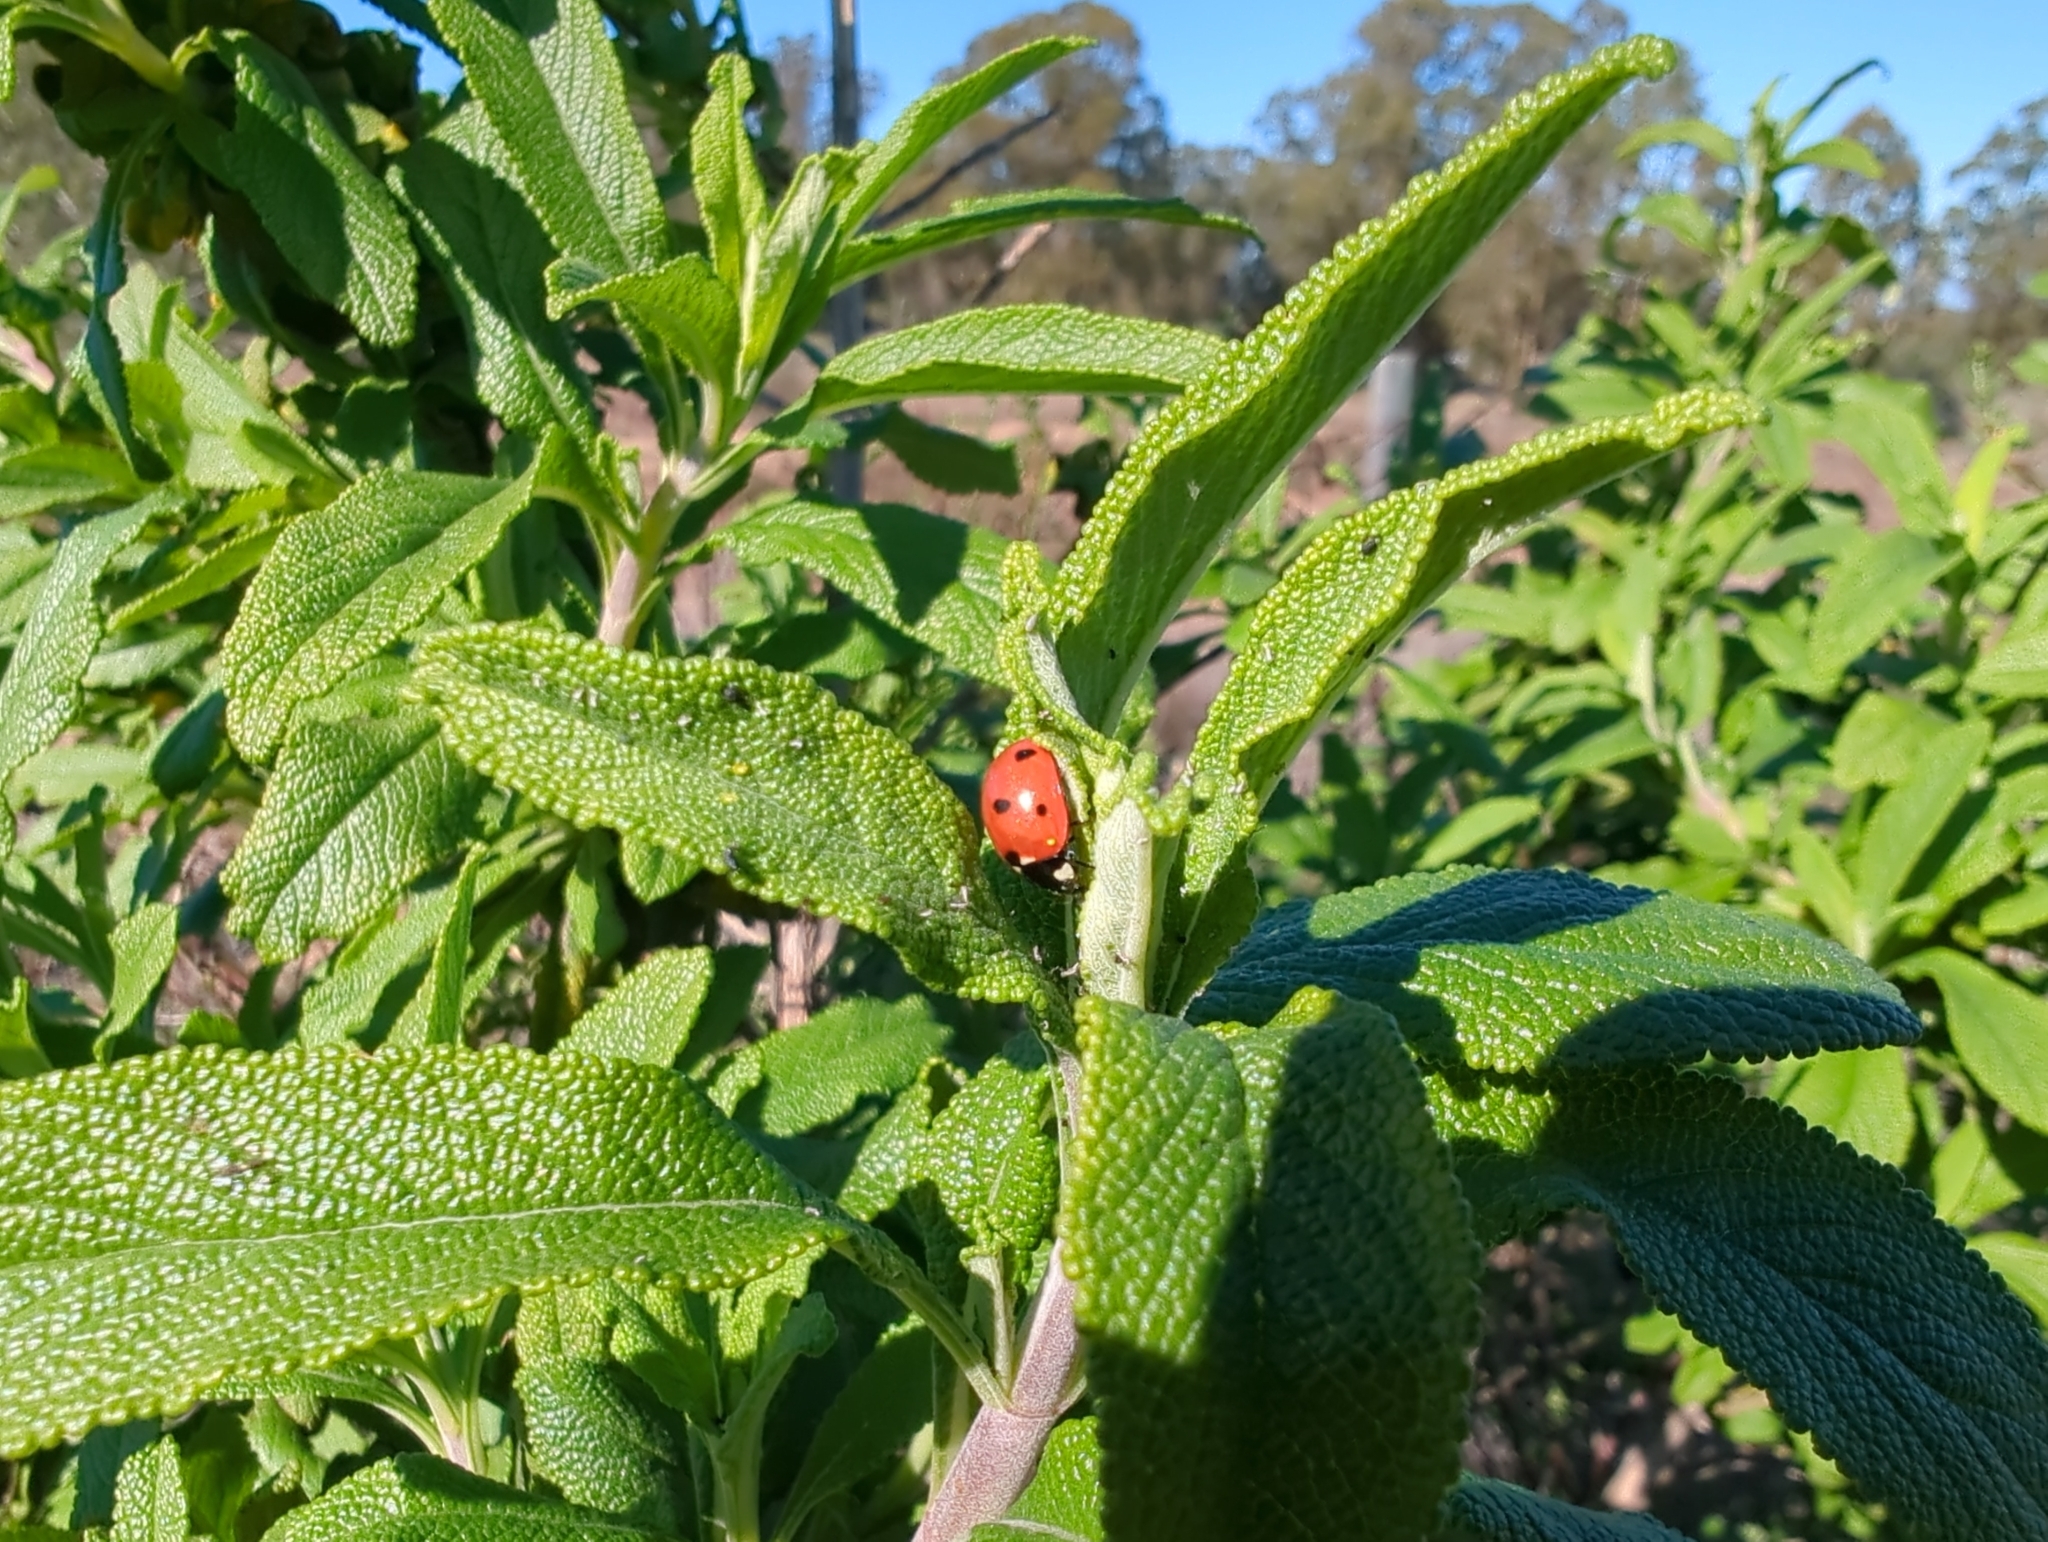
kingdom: Animalia
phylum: Arthropoda
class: Insecta
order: Coleoptera
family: Coccinellidae
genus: Coccinella
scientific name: Coccinella septempunctata
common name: Sevenspotted lady beetle
